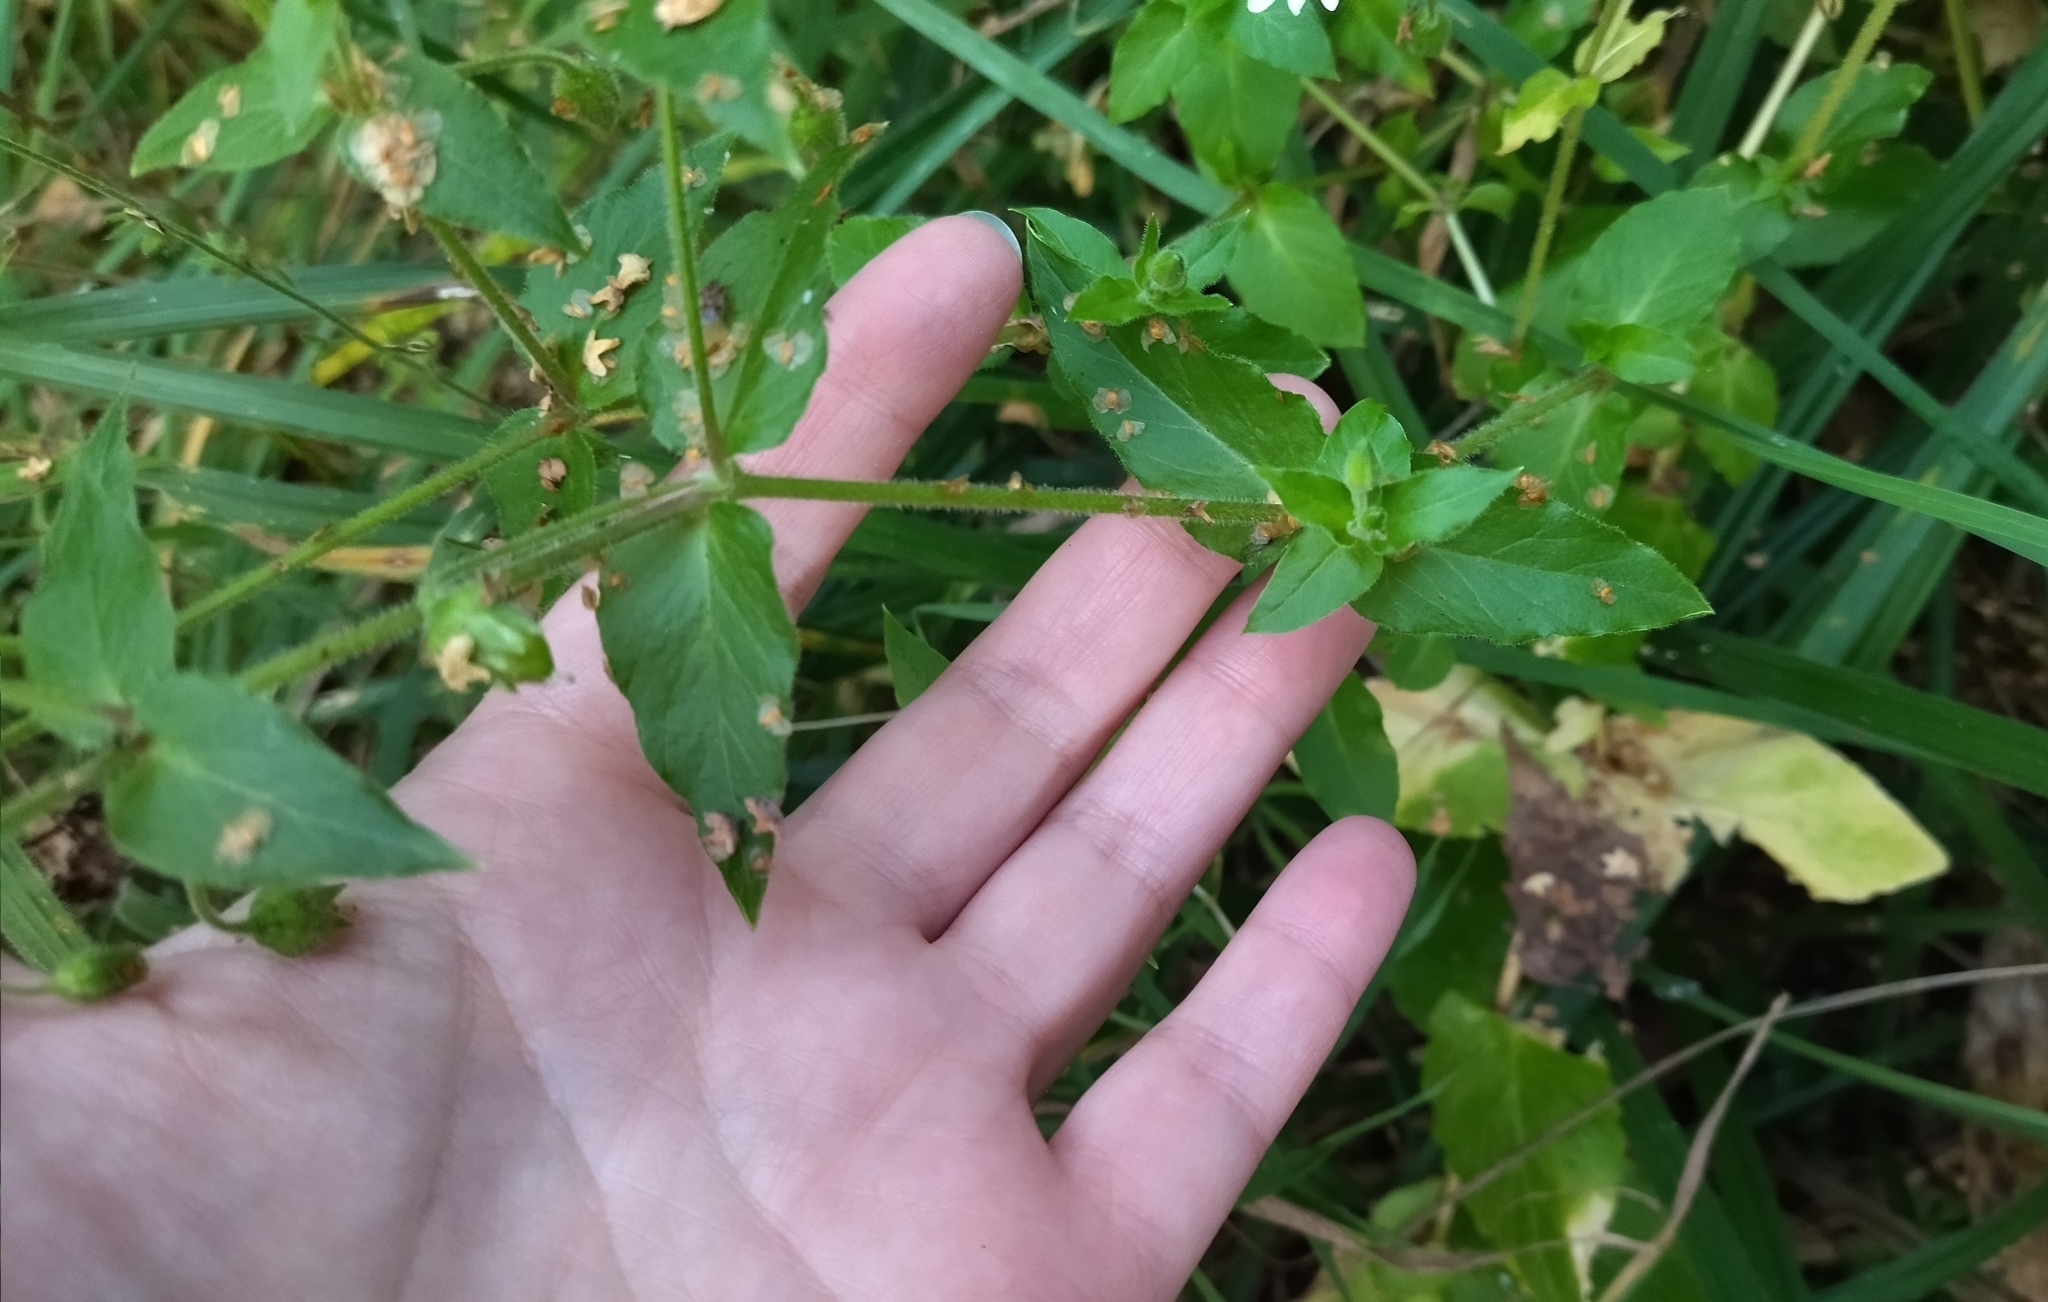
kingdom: Plantae
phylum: Tracheophyta
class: Magnoliopsida
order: Caryophyllales
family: Caryophyllaceae
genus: Stellaria
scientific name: Stellaria aquatica
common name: Water chickweed
